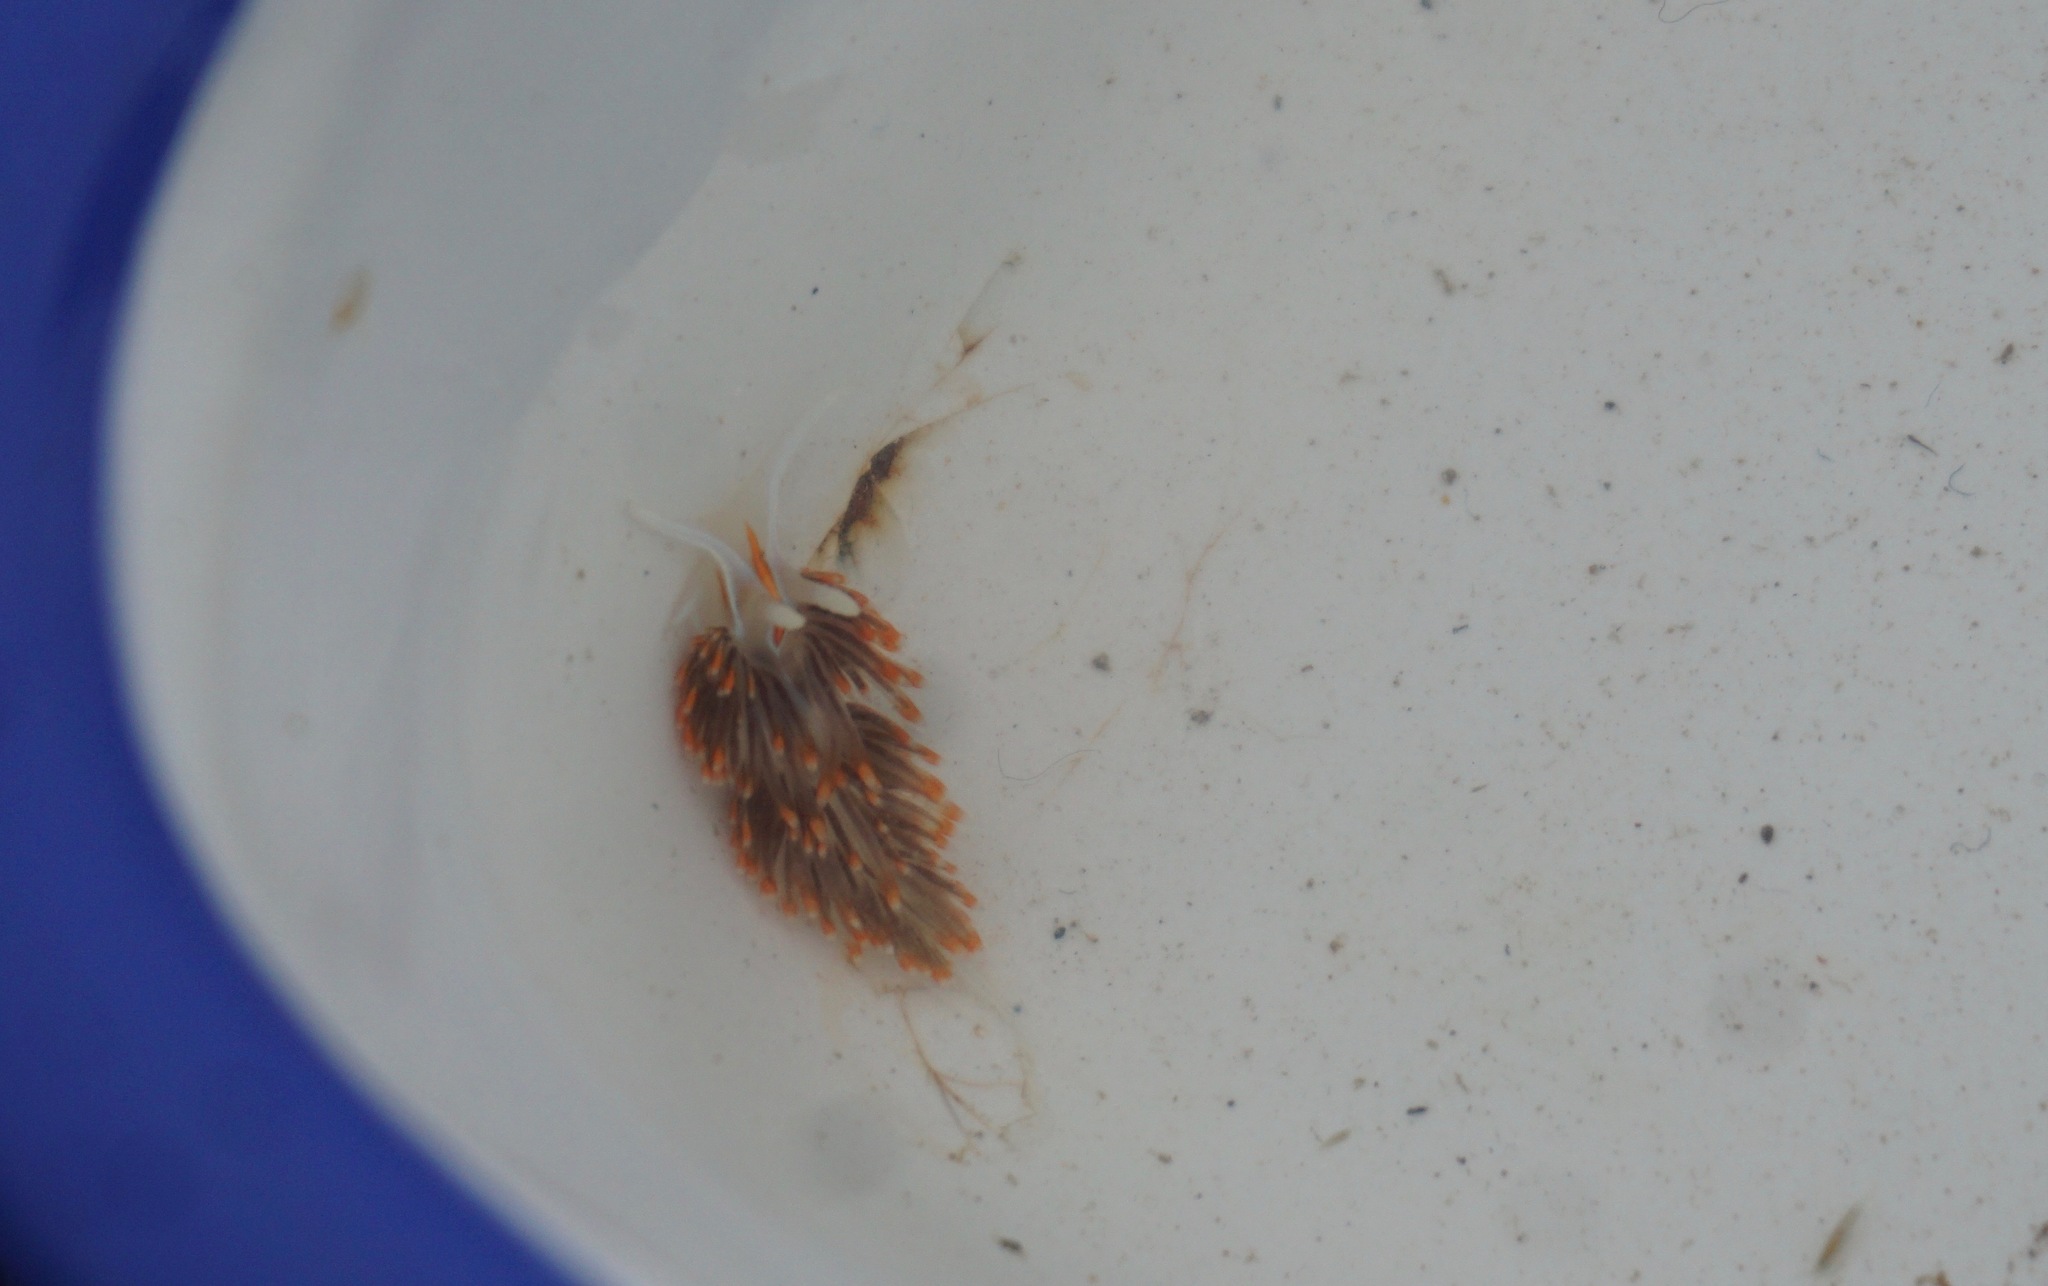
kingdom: Animalia
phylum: Mollusca
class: Gastropoda
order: Nudibranchia
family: Myrrhinidae
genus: Hermissenda
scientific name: Hermissenda opalescens
